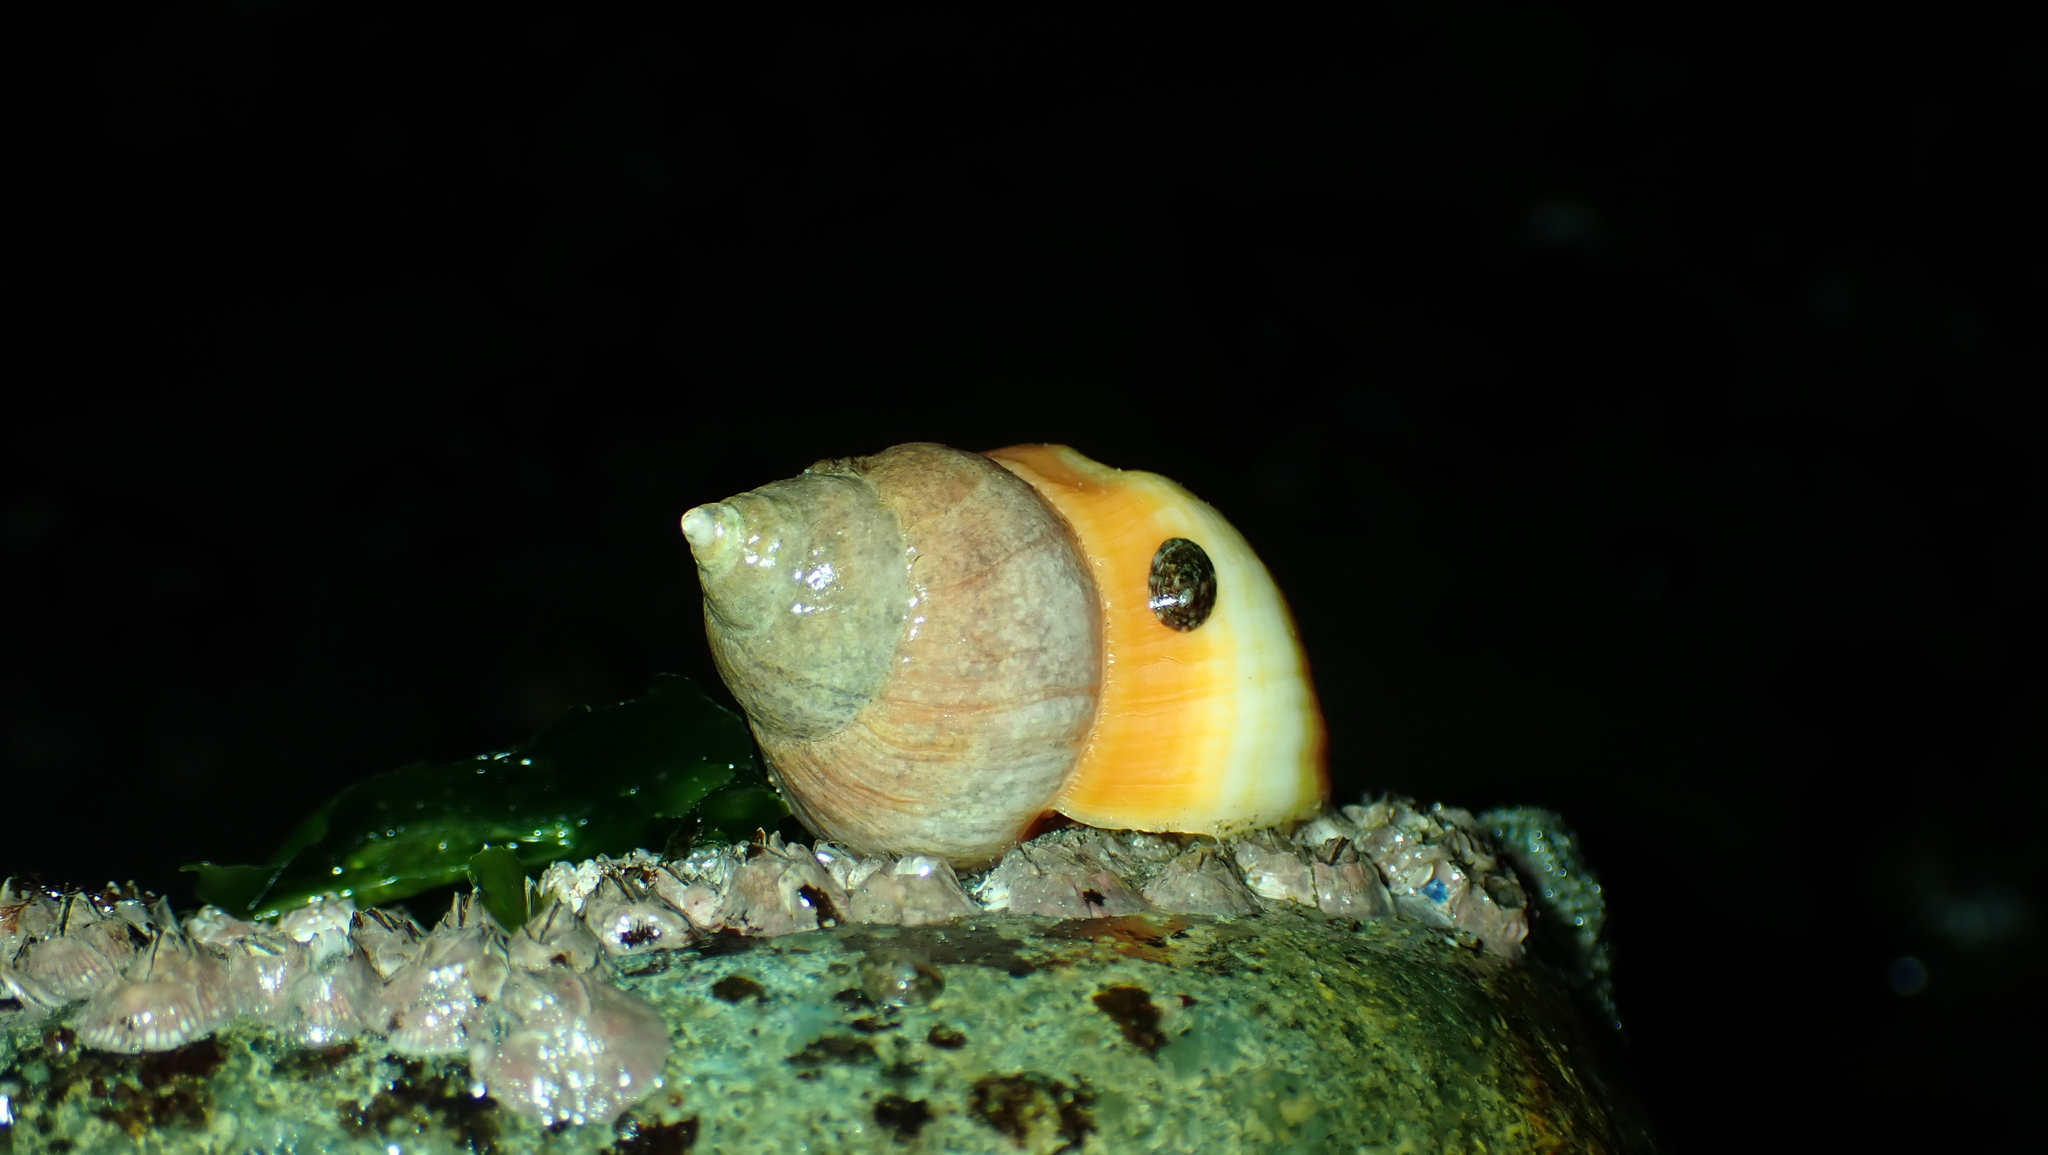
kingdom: Animalia
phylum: Mollusca
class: Gastropoda
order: Neogastropoda
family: Muricidae
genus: Nucella
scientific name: Nucella lamellosa
